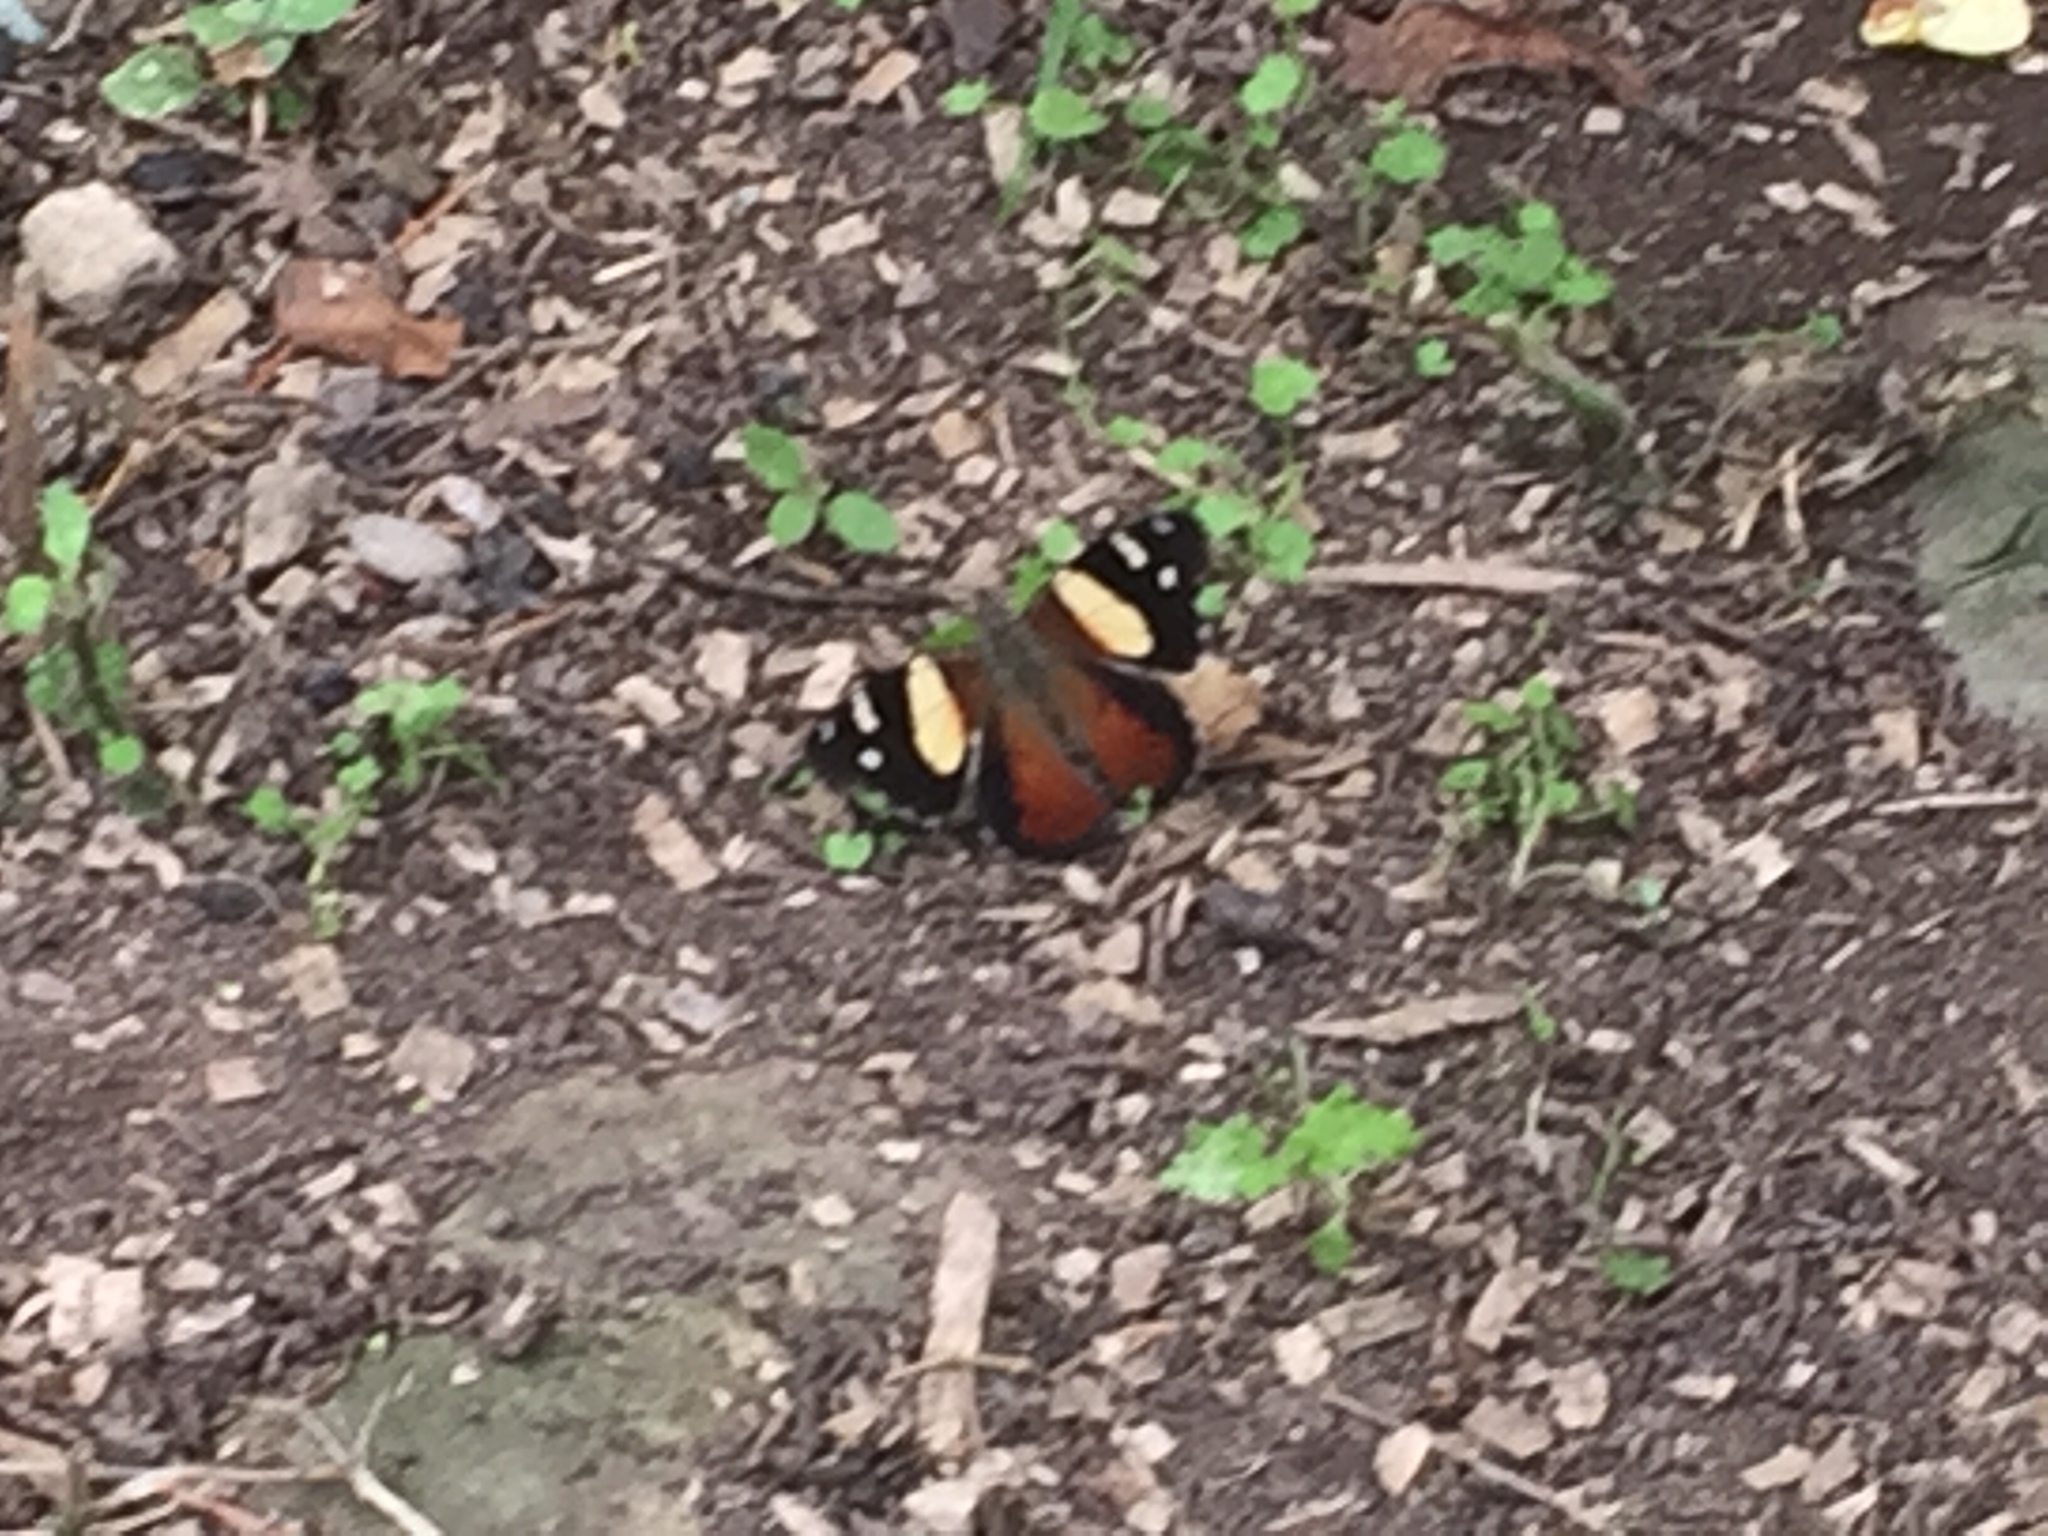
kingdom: Animalia
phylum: Arthropoda
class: Insecta
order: Lepidoptera
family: Nymphalidae
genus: Vanessa
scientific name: Vanessa itea
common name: Yellow admiral
